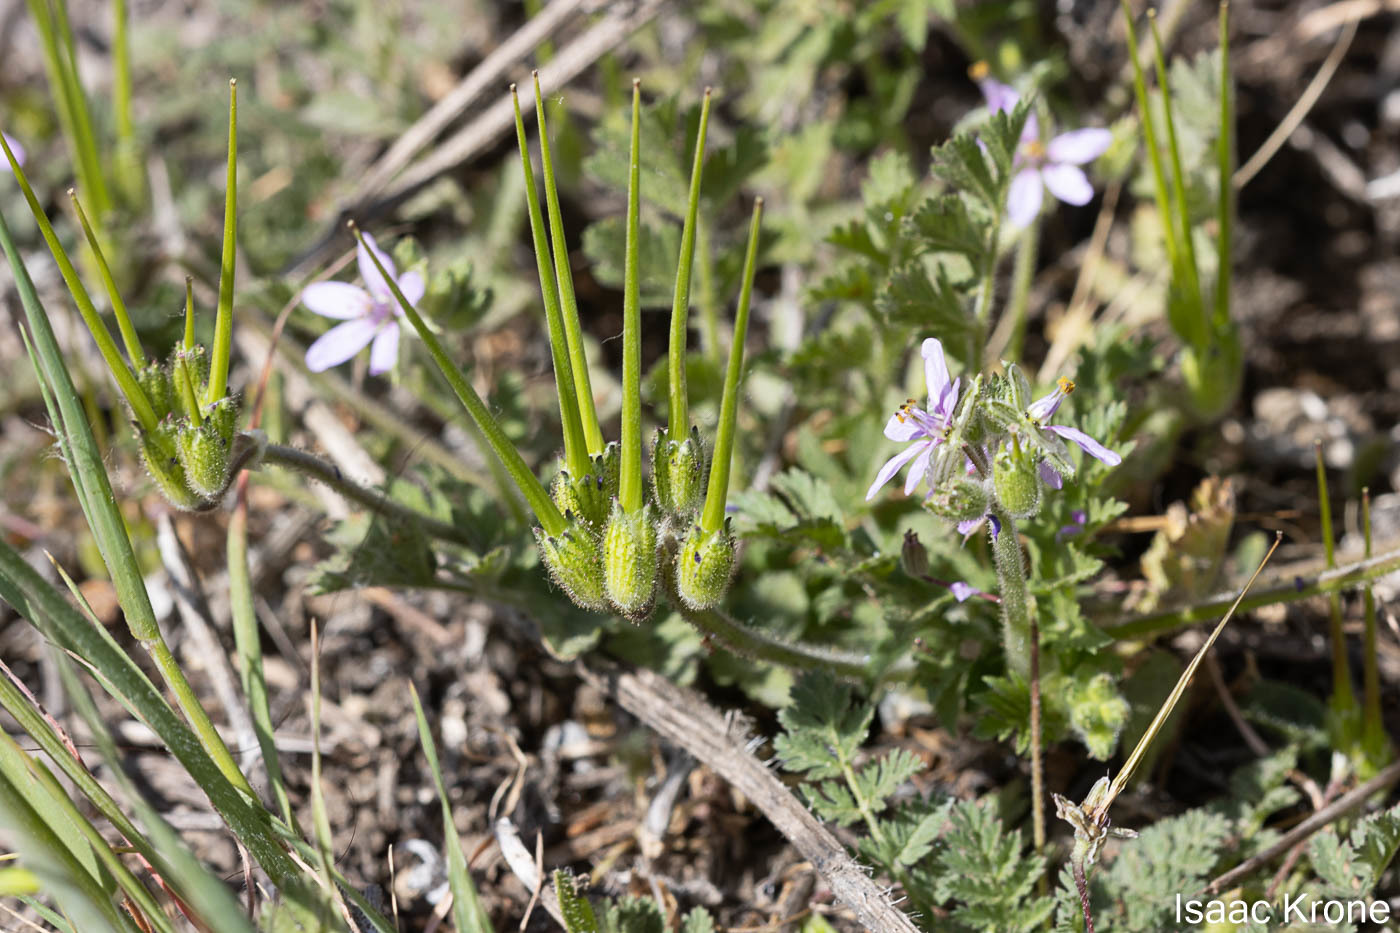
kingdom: Plantae
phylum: Tracheophyta
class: Magnoliopsida
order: Geraniales
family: Geraniaceae
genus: Erodium
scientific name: Erodium moschatum
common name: Musk stork's-bill
